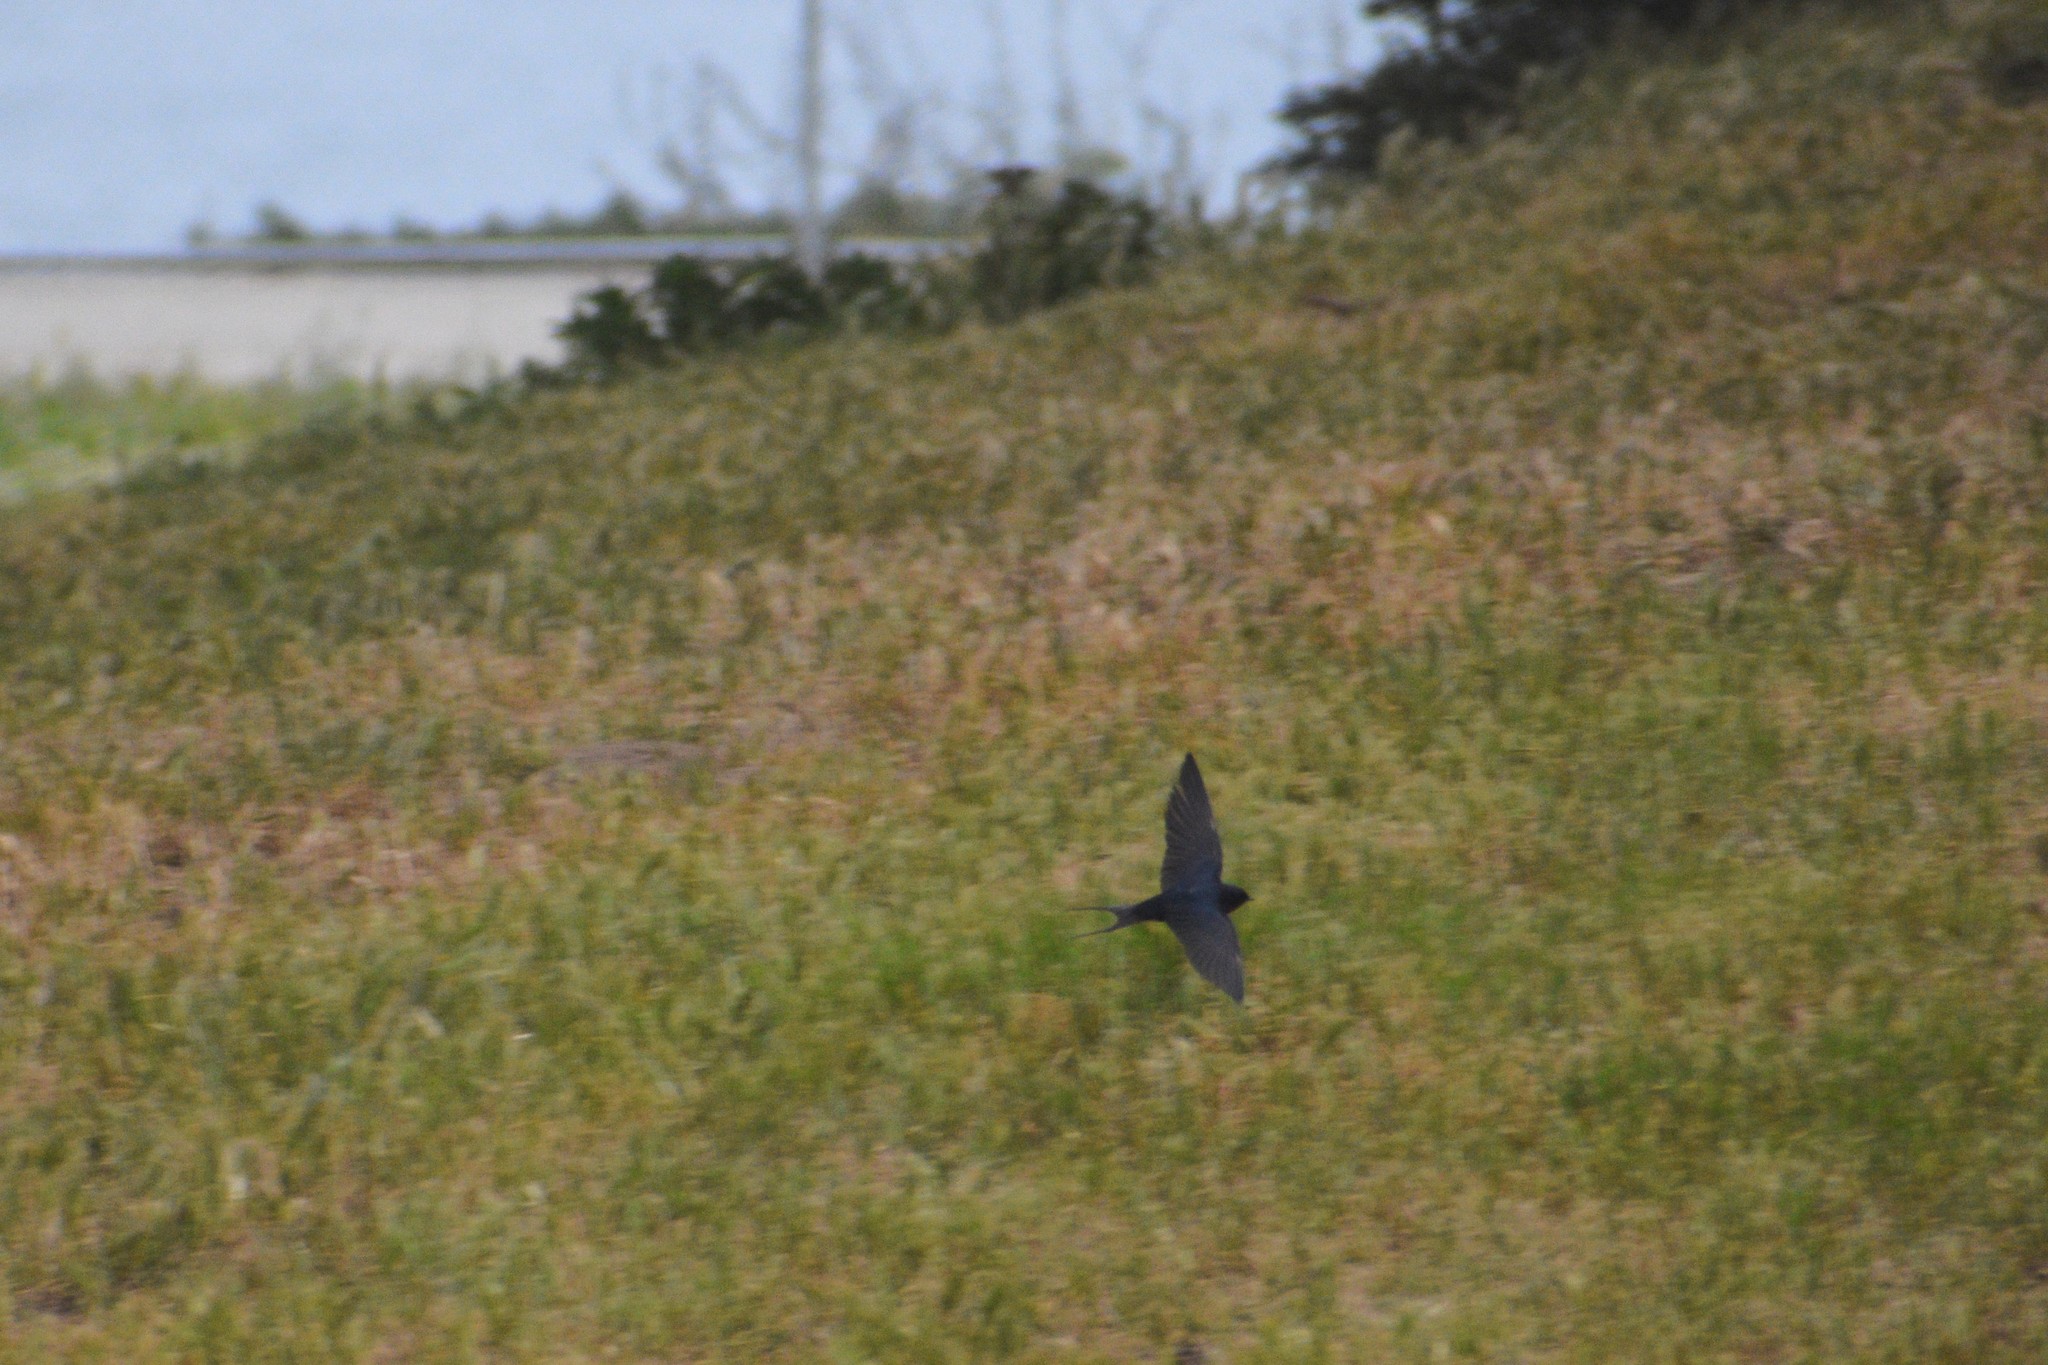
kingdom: Animalia
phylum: Chordata
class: Aves
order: Passeriformes
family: Hirundinidae
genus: Hirundo
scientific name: Hirundo rustica
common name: Barn swallow
